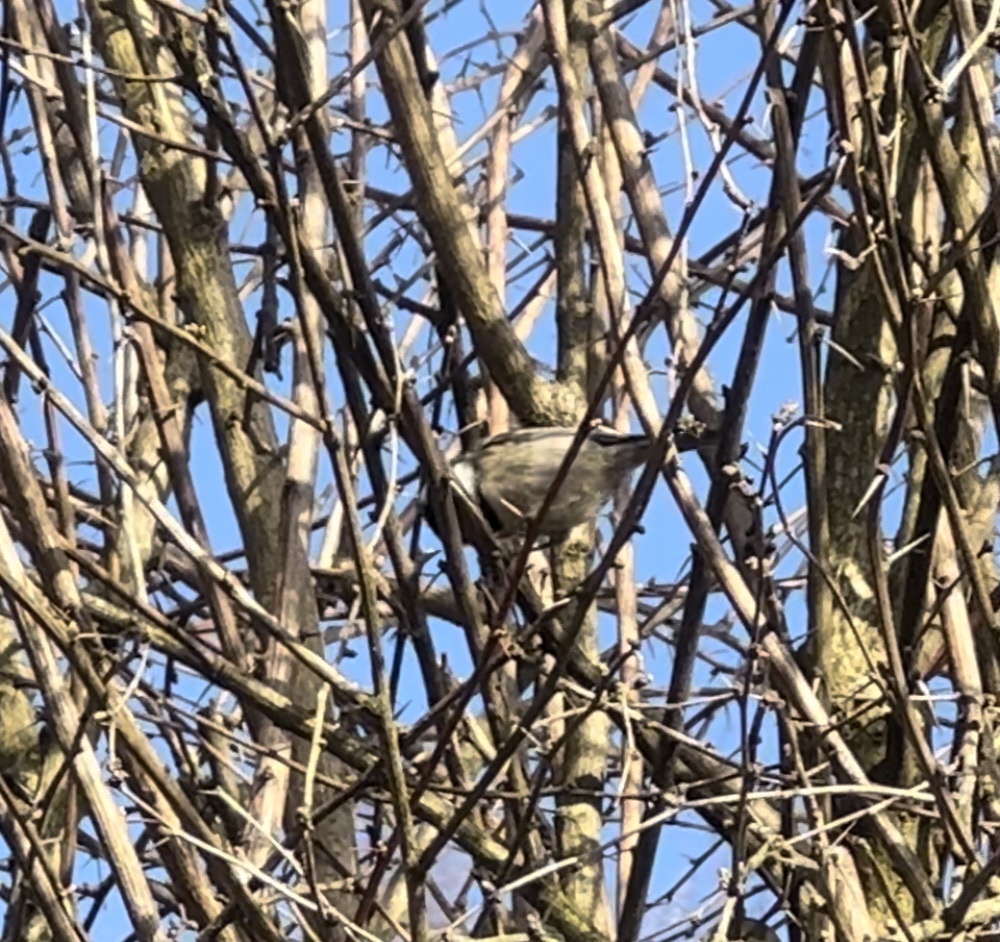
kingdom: Animalia
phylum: Chordata
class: Aves
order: Passeriformes
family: Paridae
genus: Periparus
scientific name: Periparus ater
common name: Coal tit
